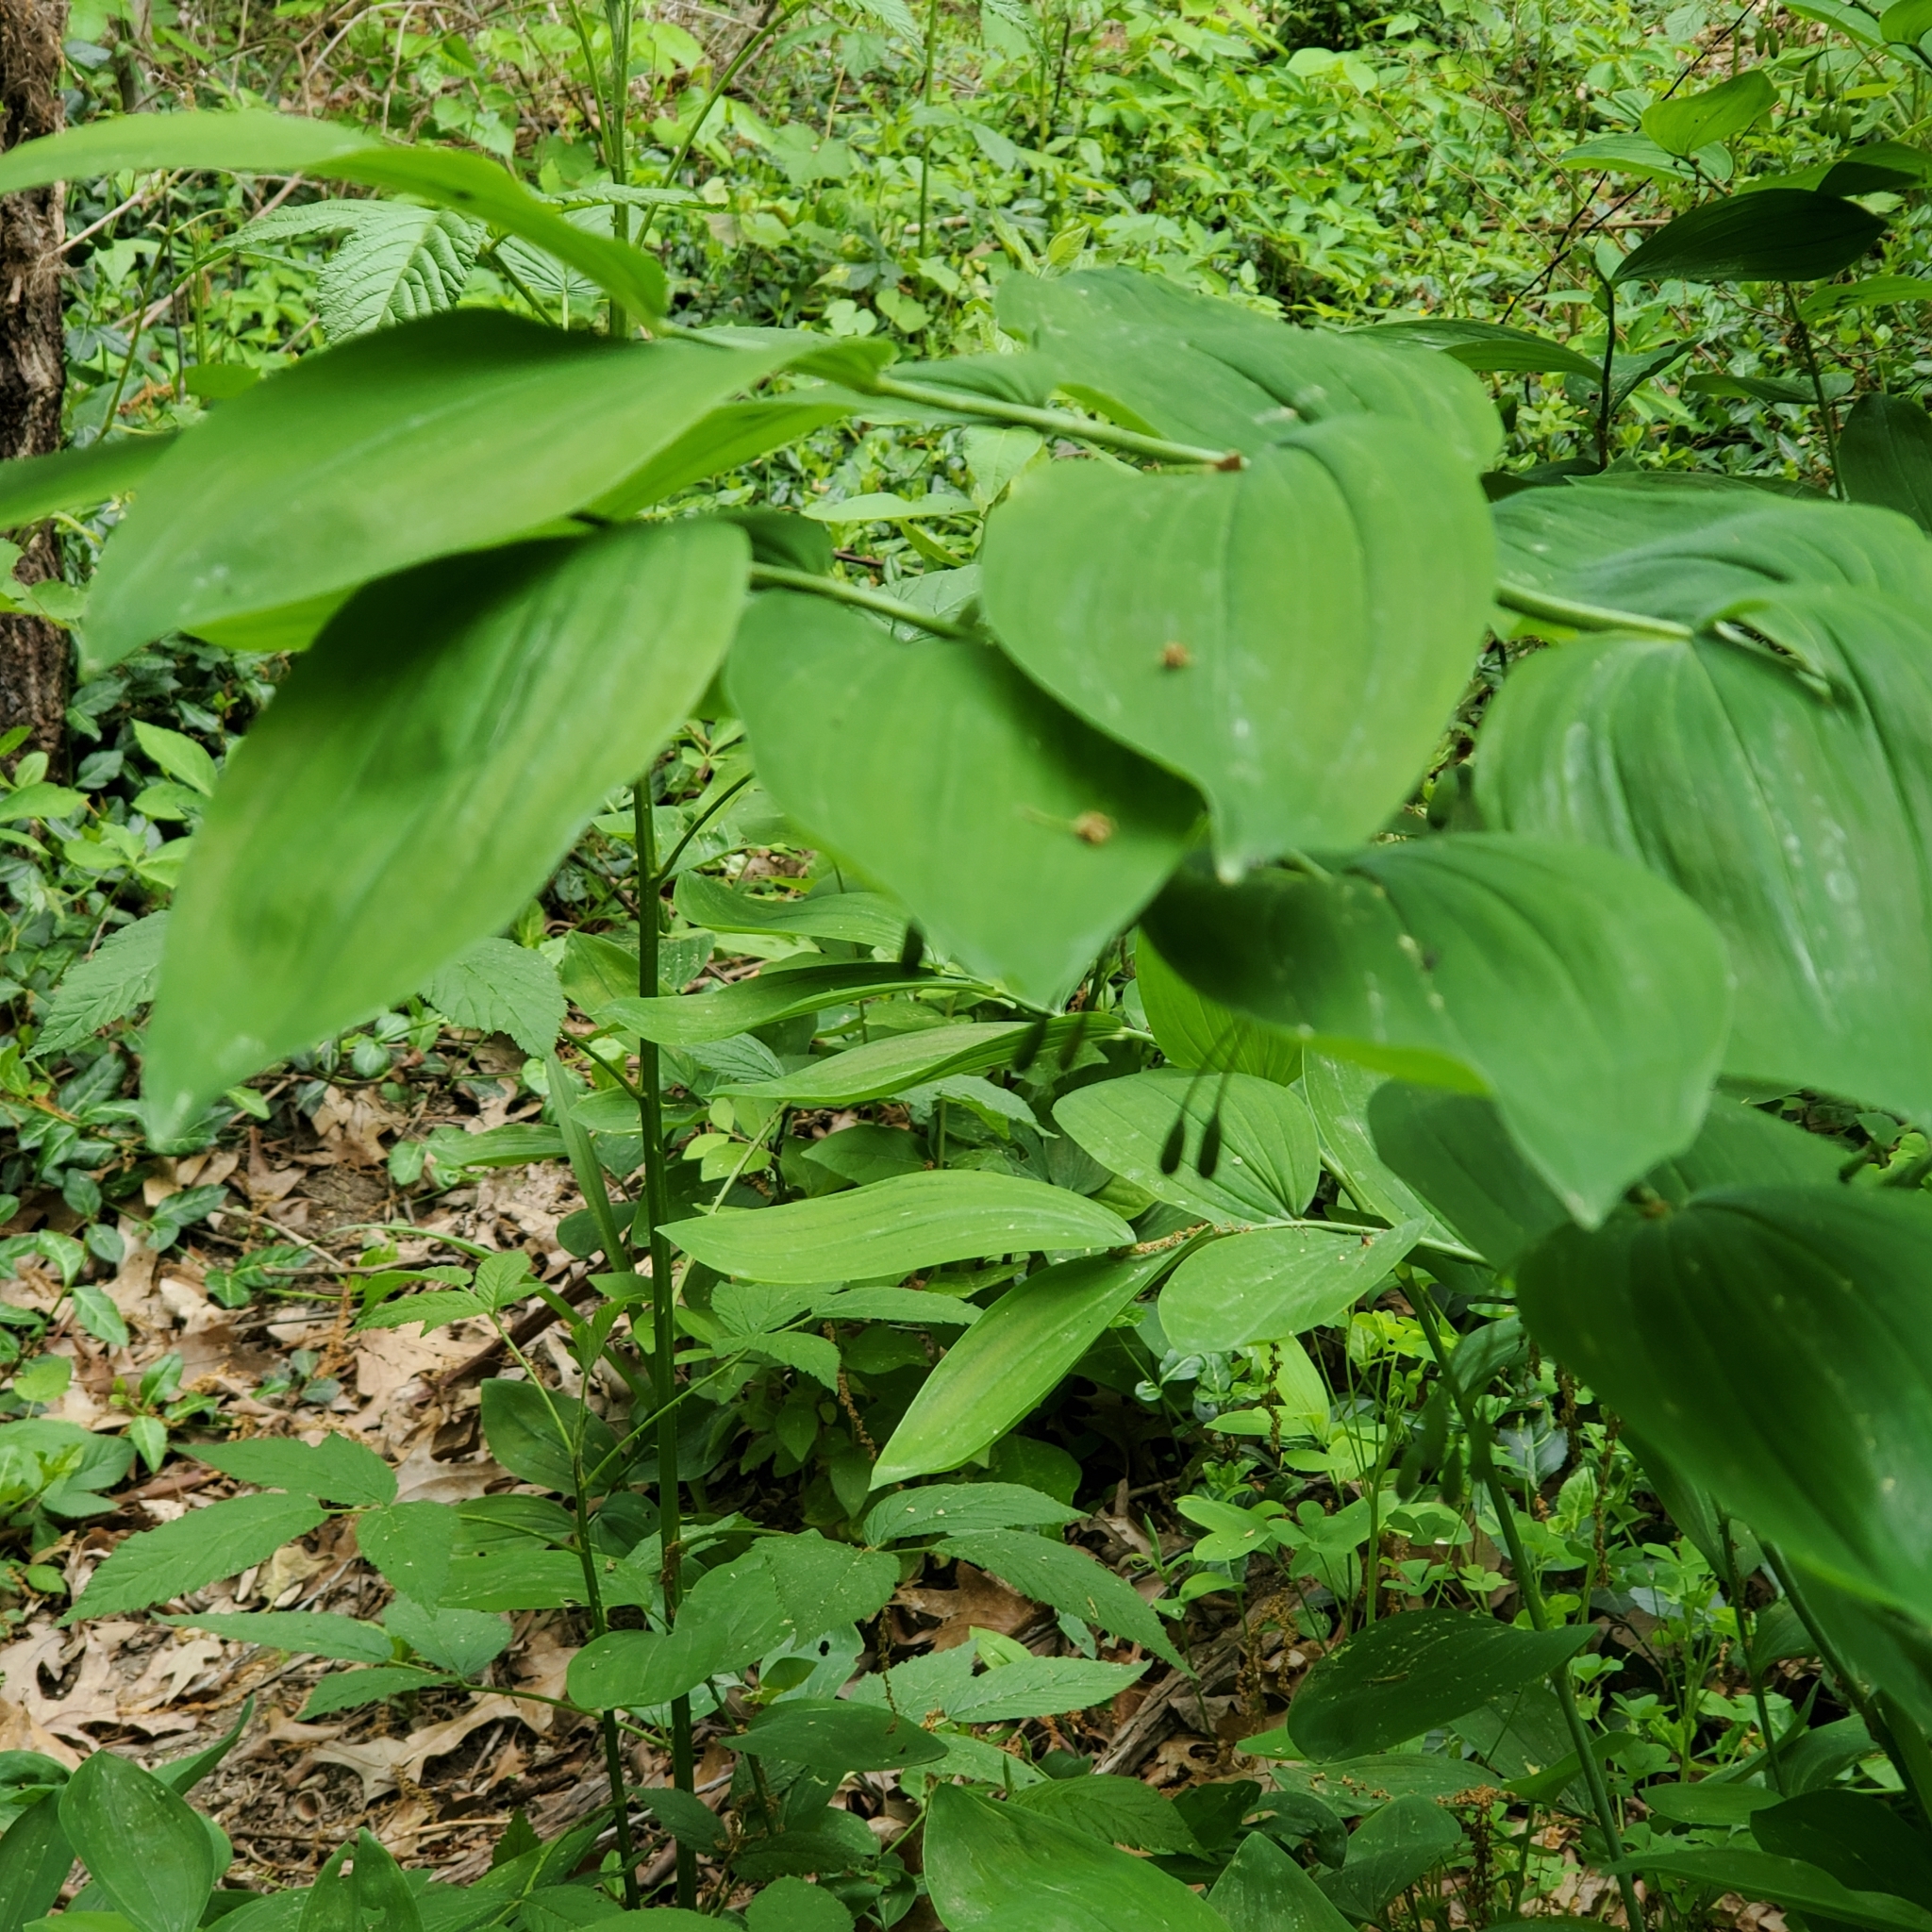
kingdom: Plantae
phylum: Tracheophyta
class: Liliopsida
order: Asparagales
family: Asparagaceae
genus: Polygonatum
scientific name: Polygonatum biflorum
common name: American solomon's-seal
